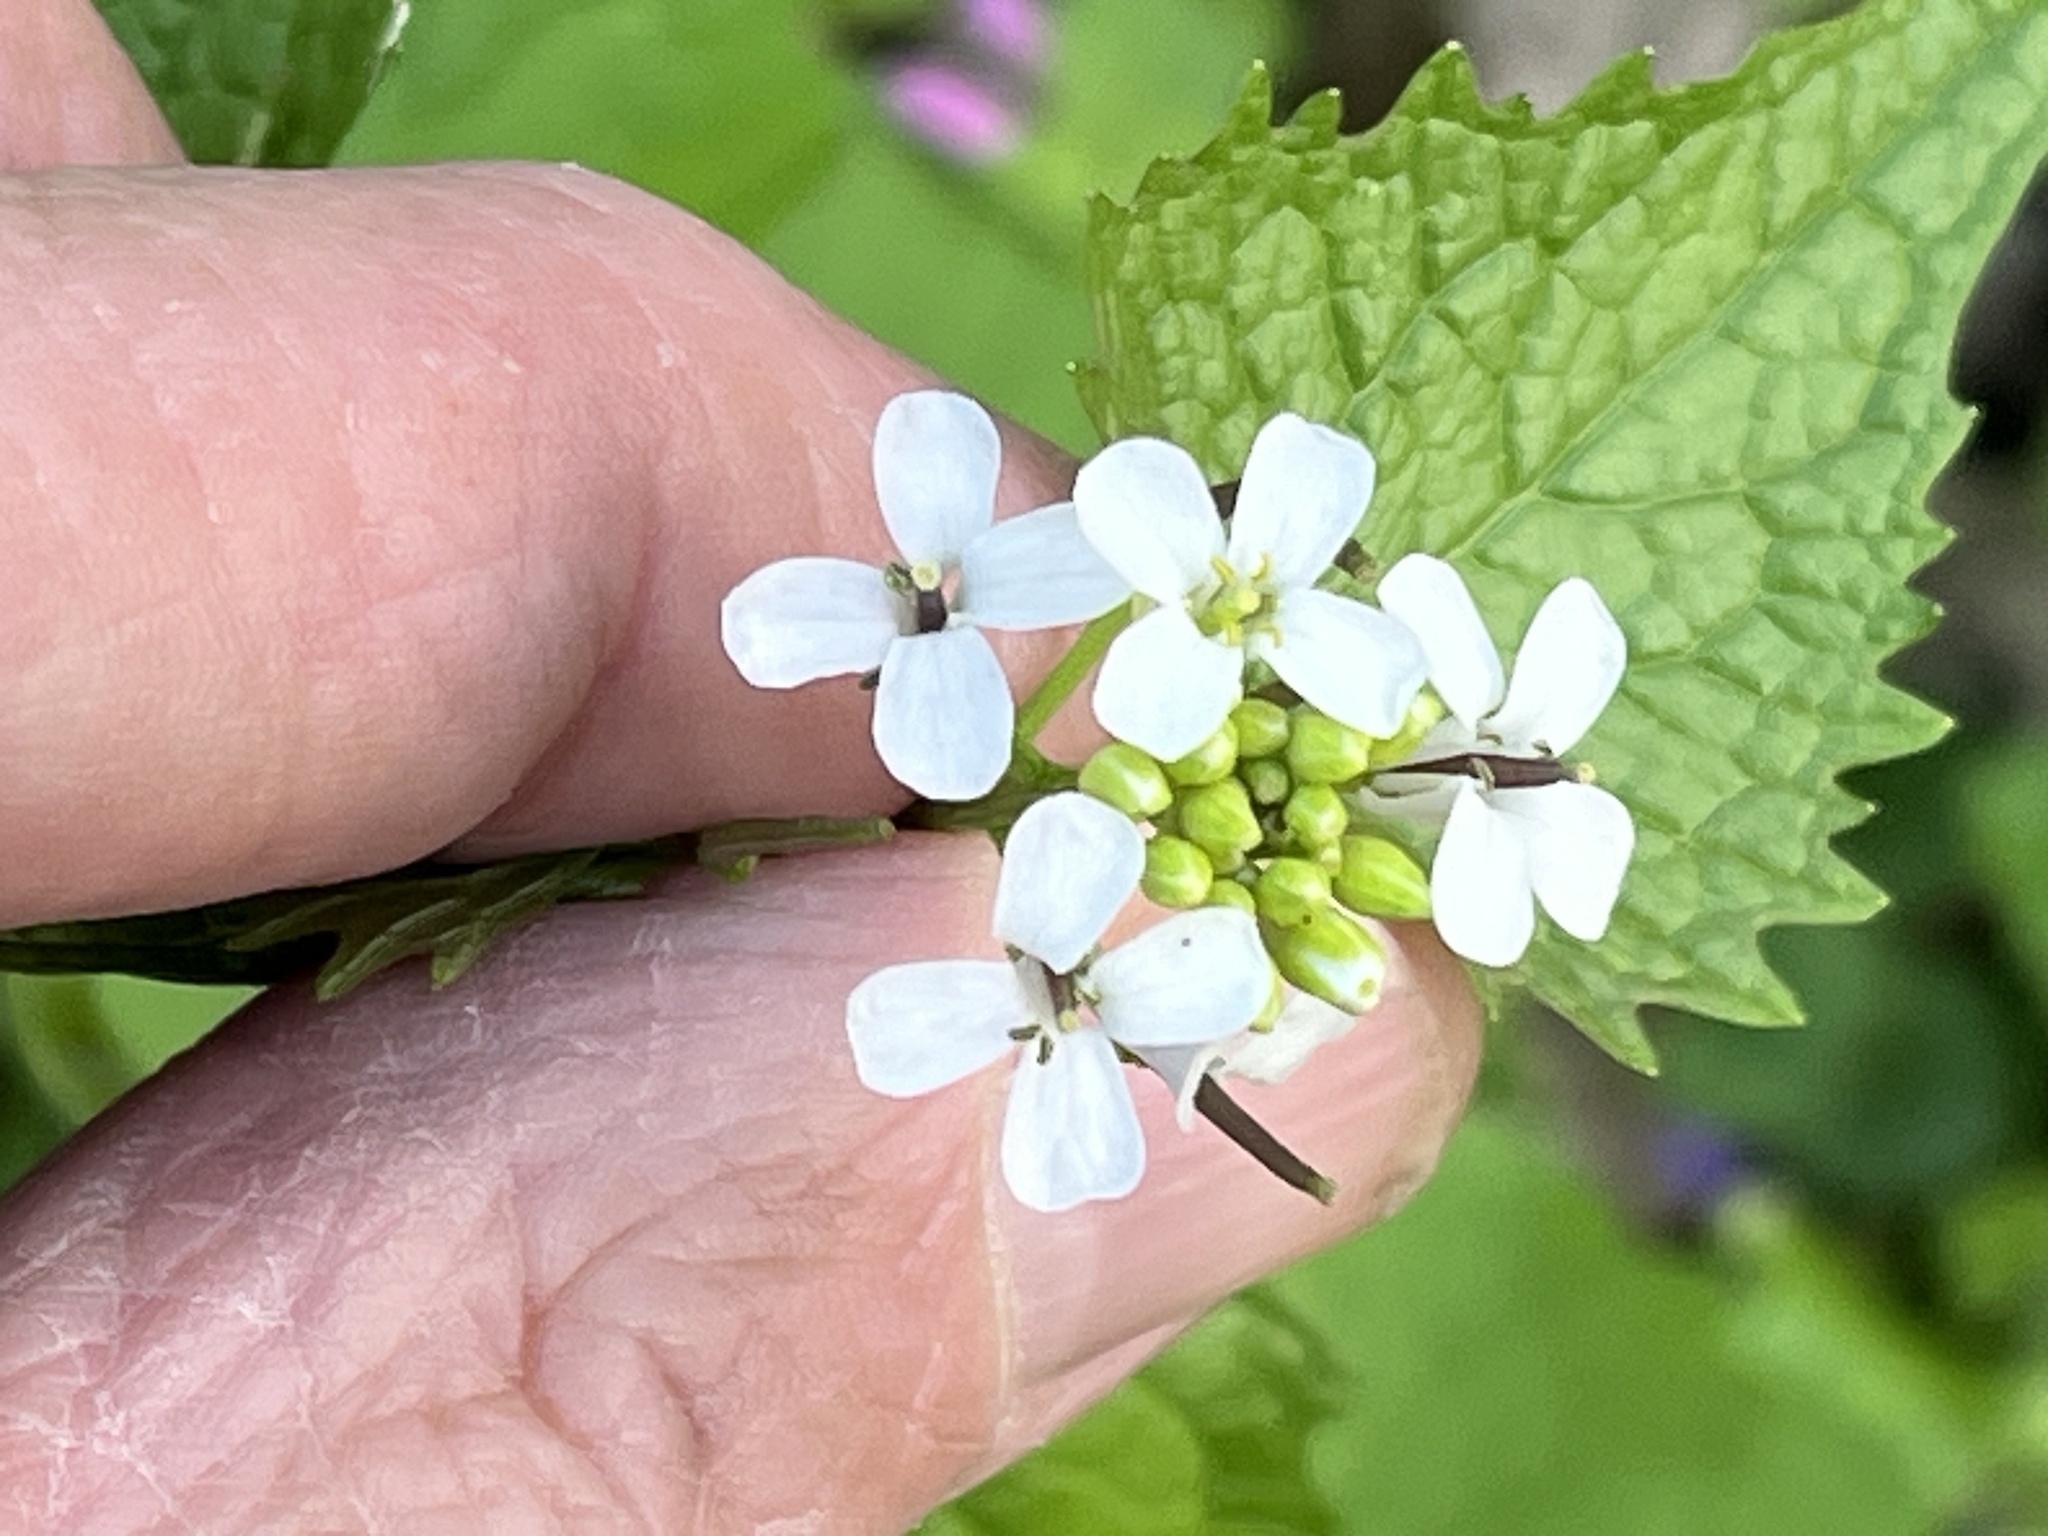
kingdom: Plantae
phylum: Tracheophyta
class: Magnoliopsida
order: Brassicales
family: Brassicaceae
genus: Alliaria
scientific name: Alliaria petiolata
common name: Garlic mustard
